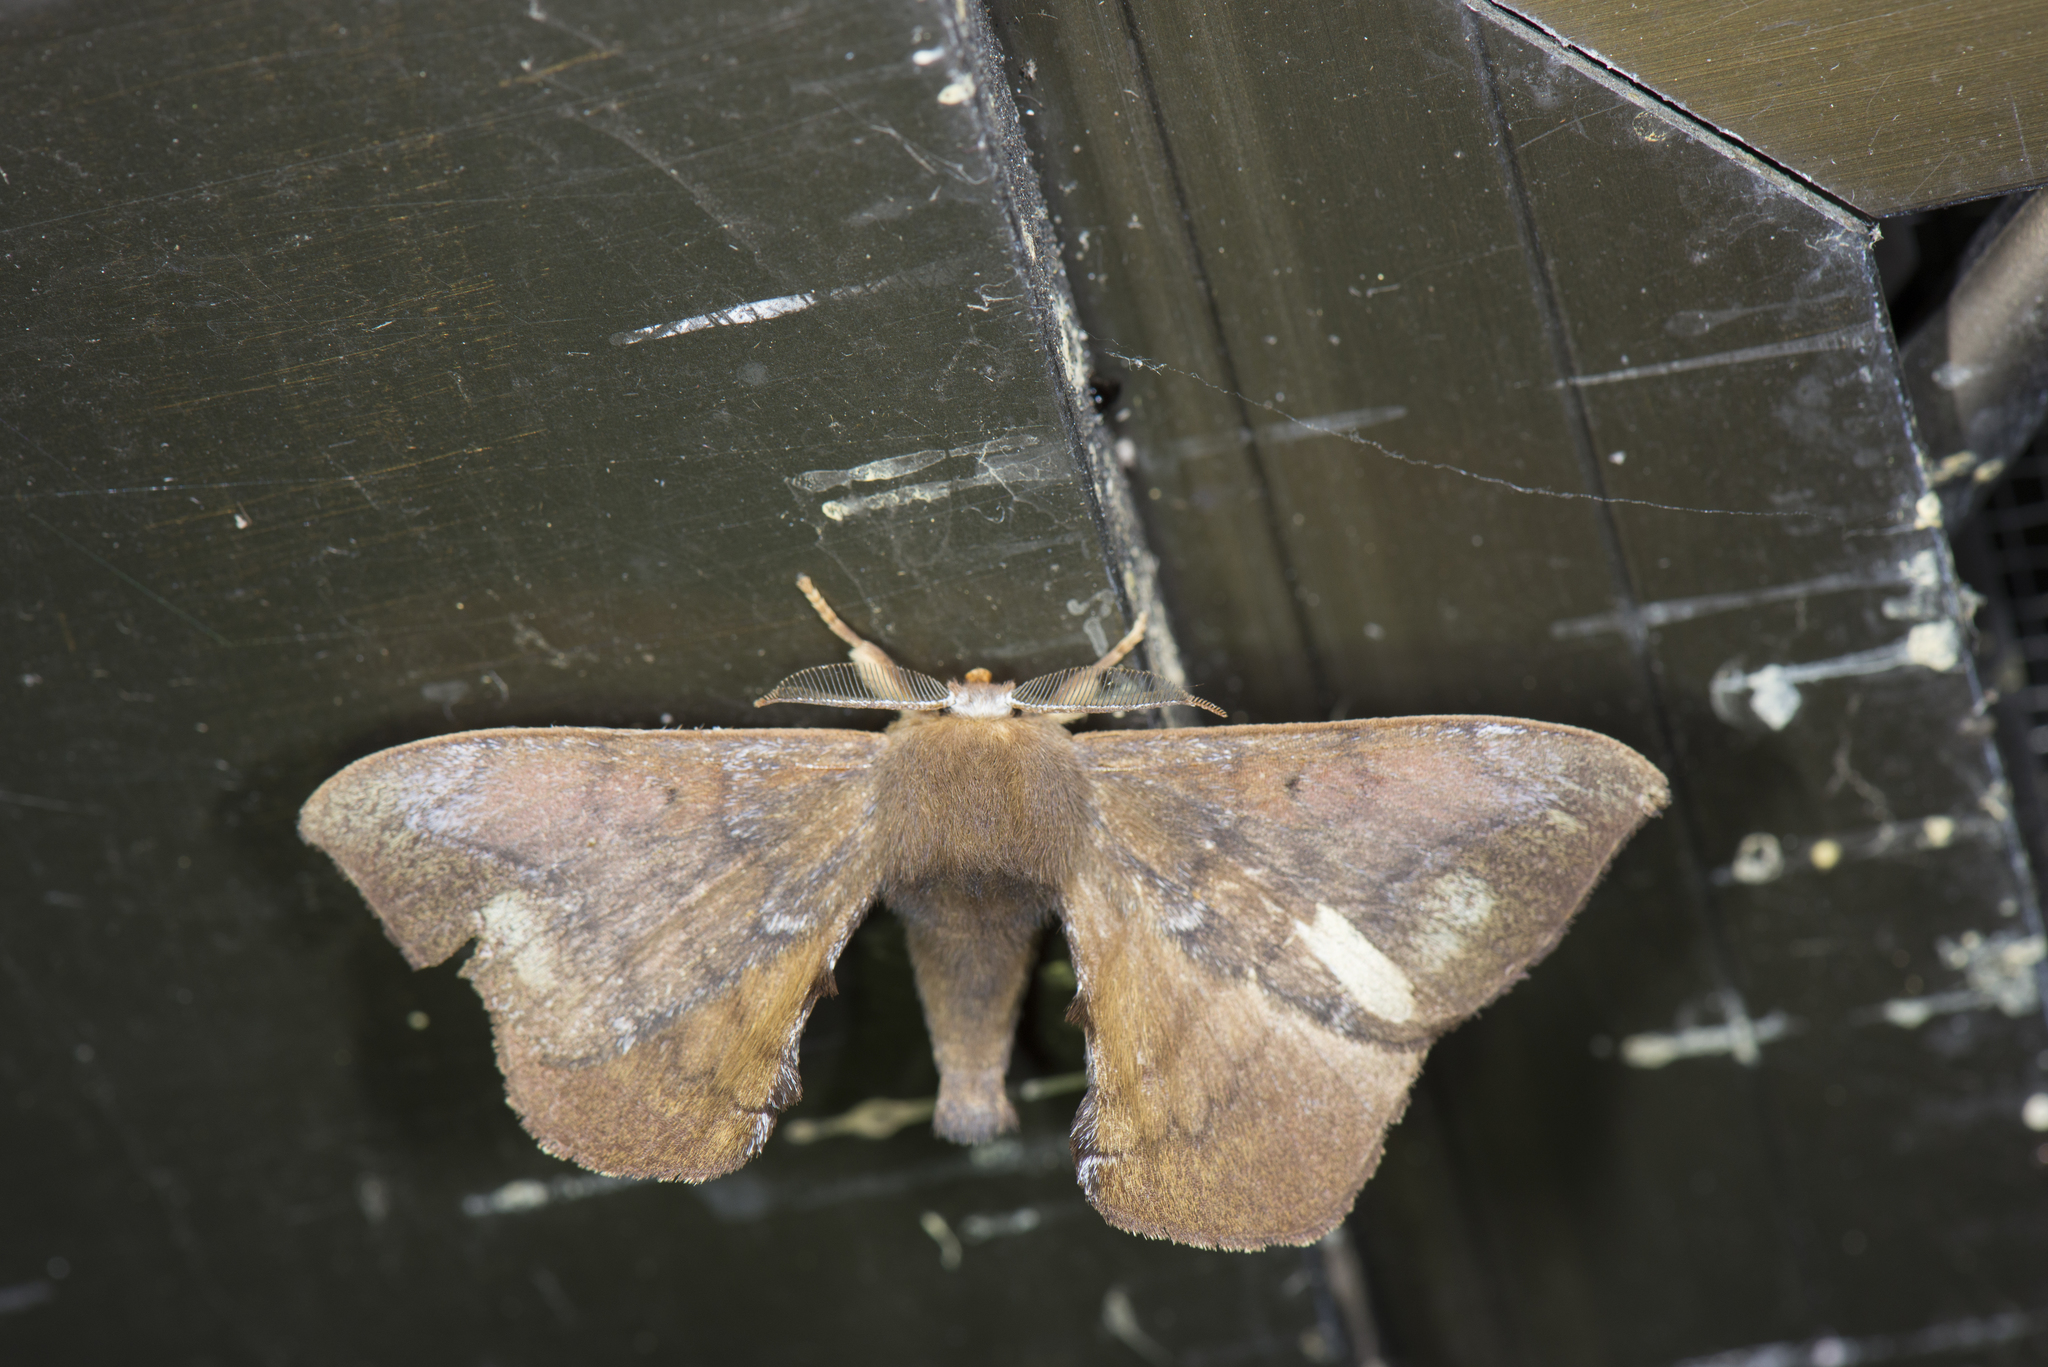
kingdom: Animalia
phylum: Arthropoda
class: Insecta
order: Lepidoptera
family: Endromidae
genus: Andraca
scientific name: Andraca yauichui
